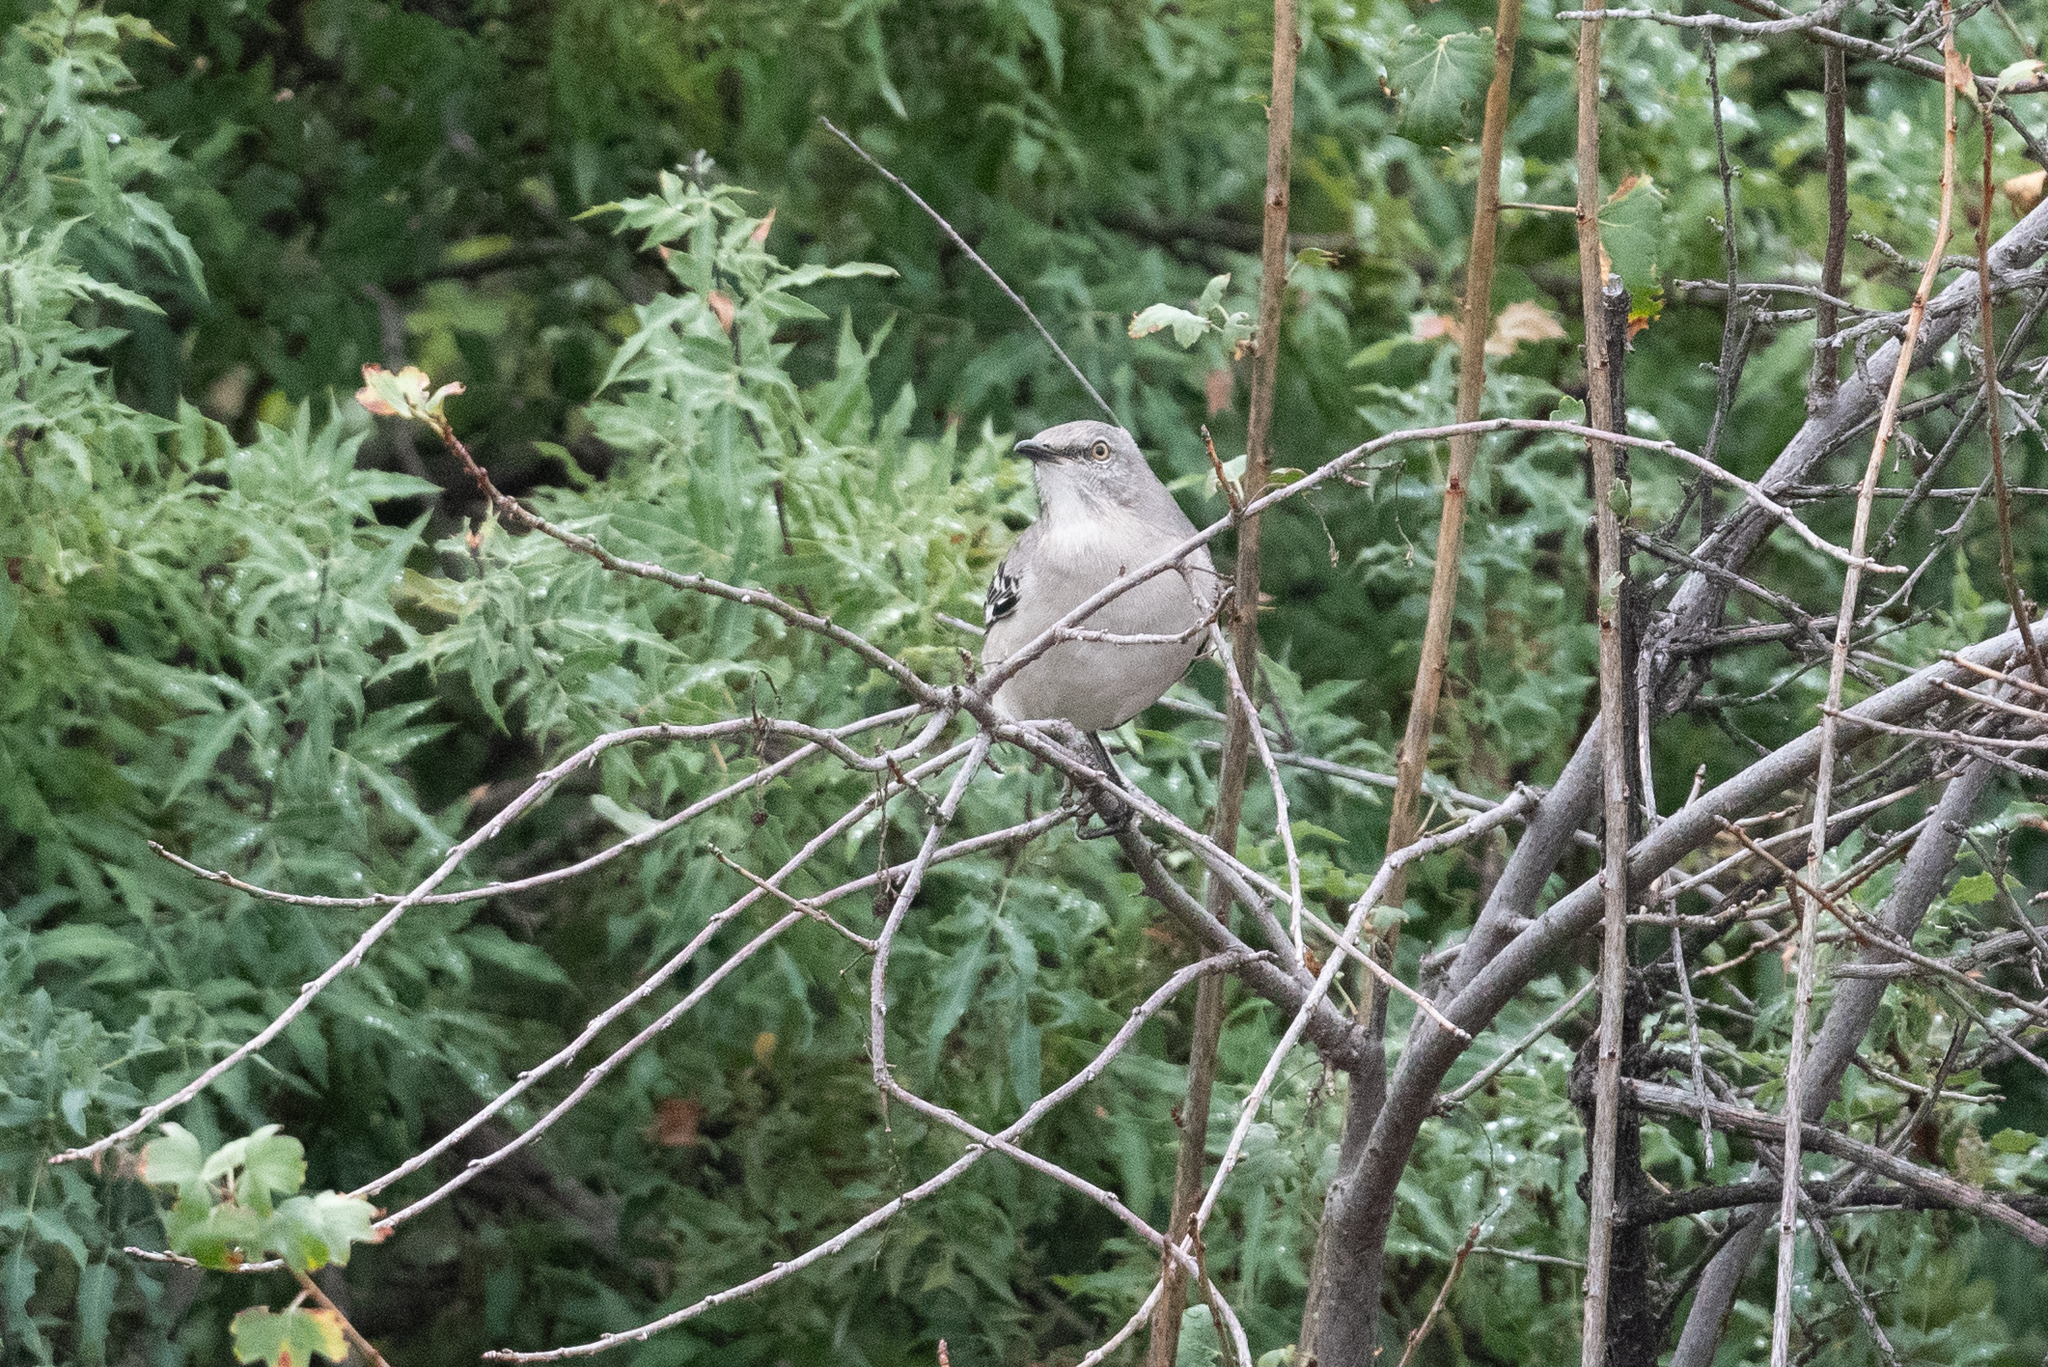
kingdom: Animalia
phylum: Chordata
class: Aves
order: Passeriformes
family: Mimidae
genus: Mimus
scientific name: Mimus polyglottos
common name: Northern mockingbird
